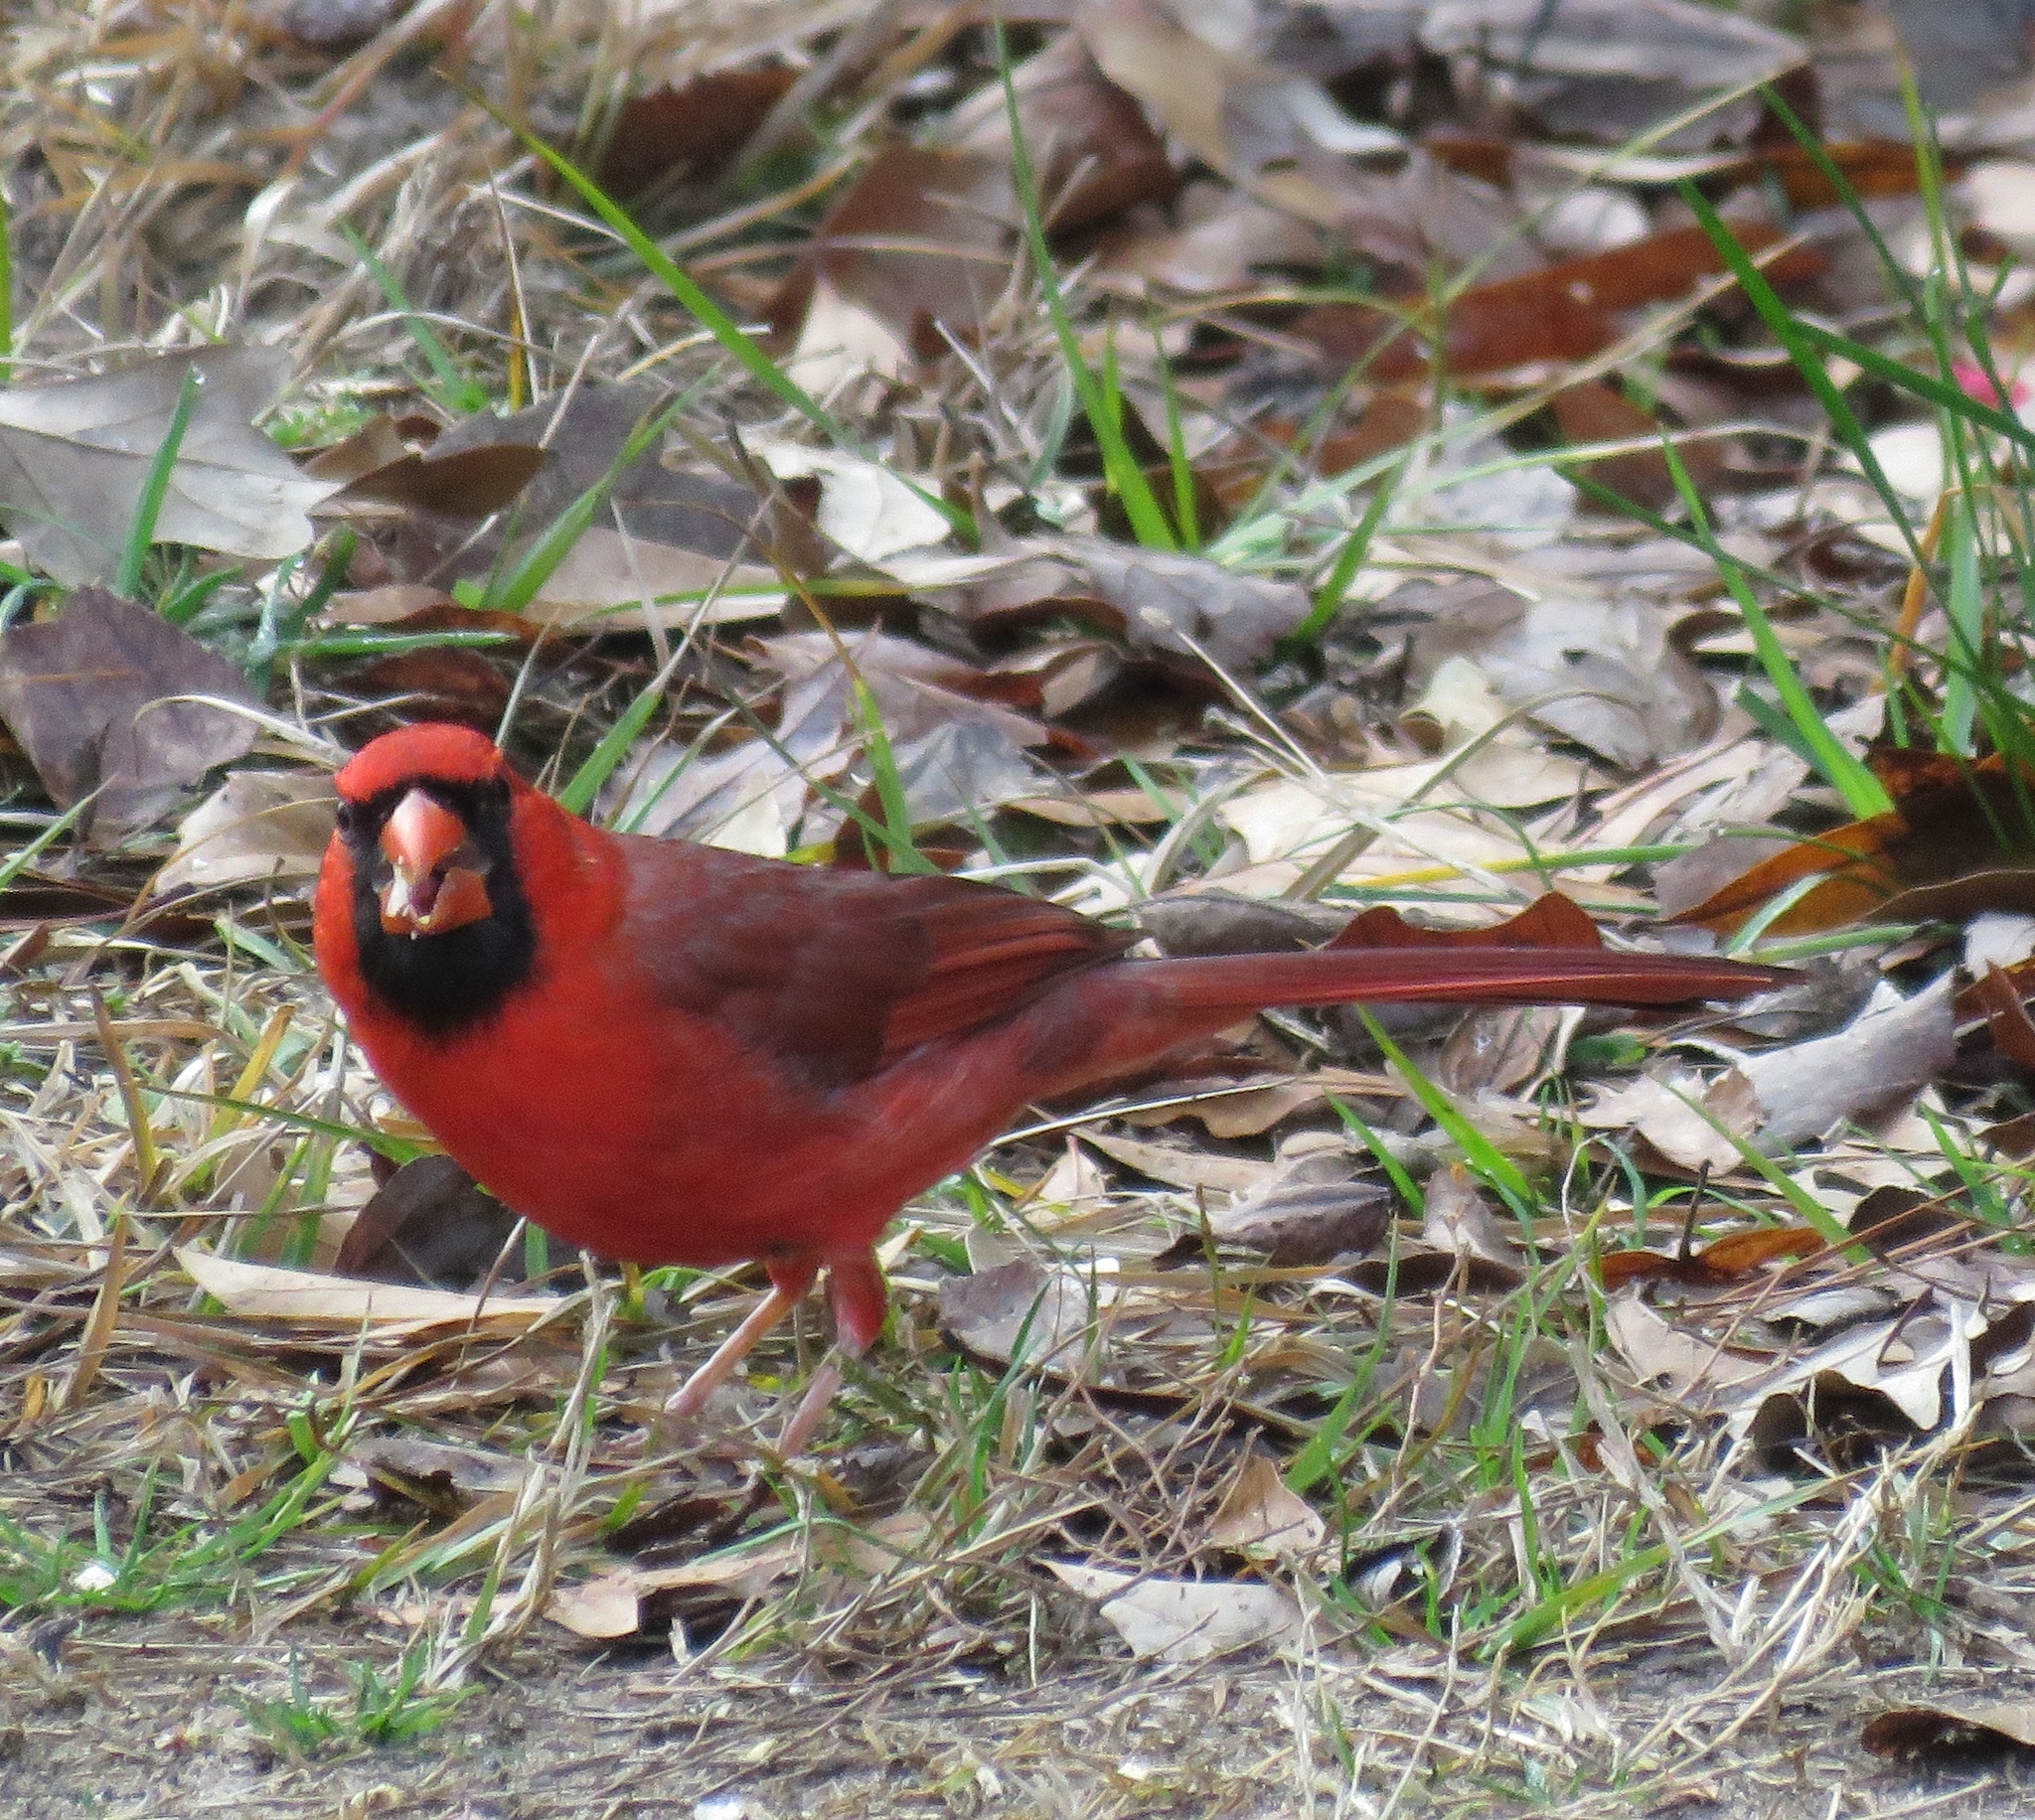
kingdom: Animalia
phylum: Chordata
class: Aves
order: Passeriformes
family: Cardinalidae
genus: Cardinalis
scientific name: Cardinalis cardinalis
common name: Northern cardinal
